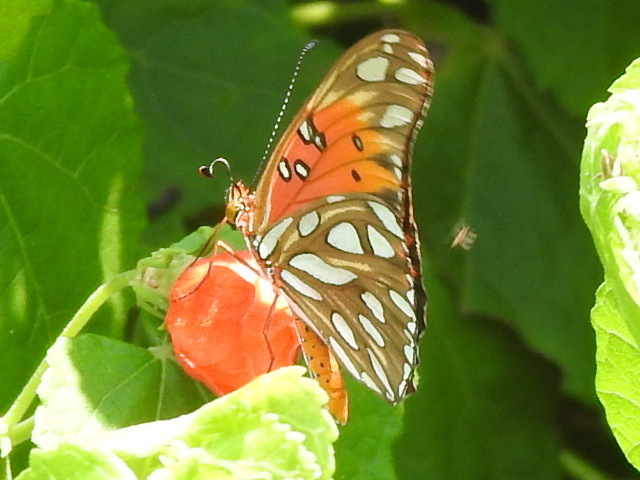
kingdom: Animalia
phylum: Arthropoda
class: Insecta
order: Lepidoptera
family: Nymphalidae
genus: Dione
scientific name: Dione vanillae
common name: Gulf fritillary
